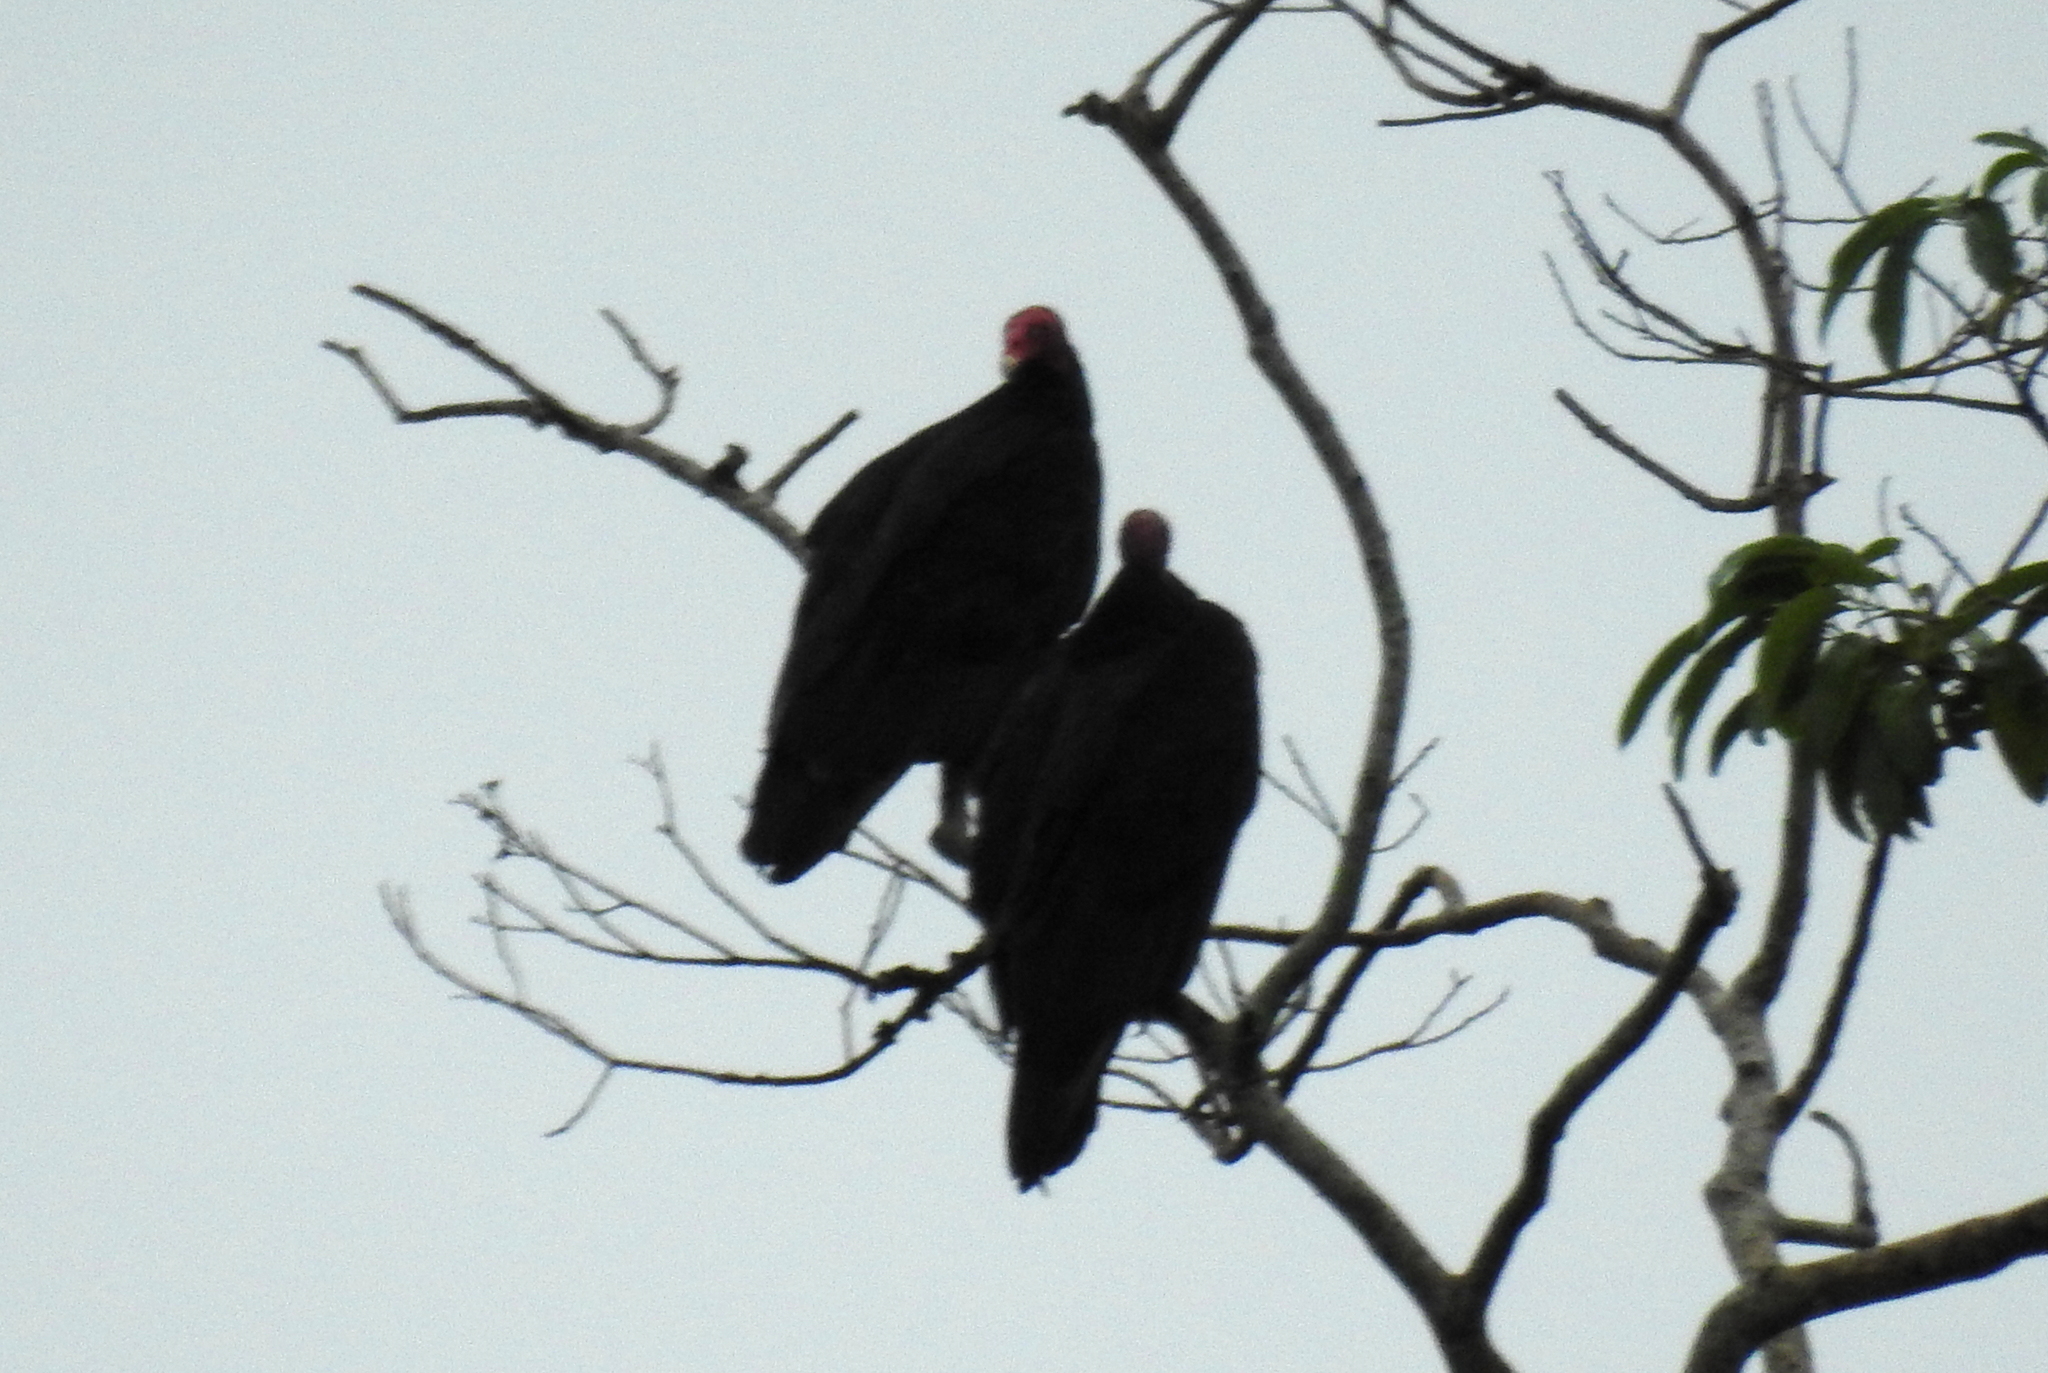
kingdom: Animalia
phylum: Chordata
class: Aves
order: Accipitriformes
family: Cathartidae
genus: Cathartes
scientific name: Cathartes aura
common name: Turkey vulture
